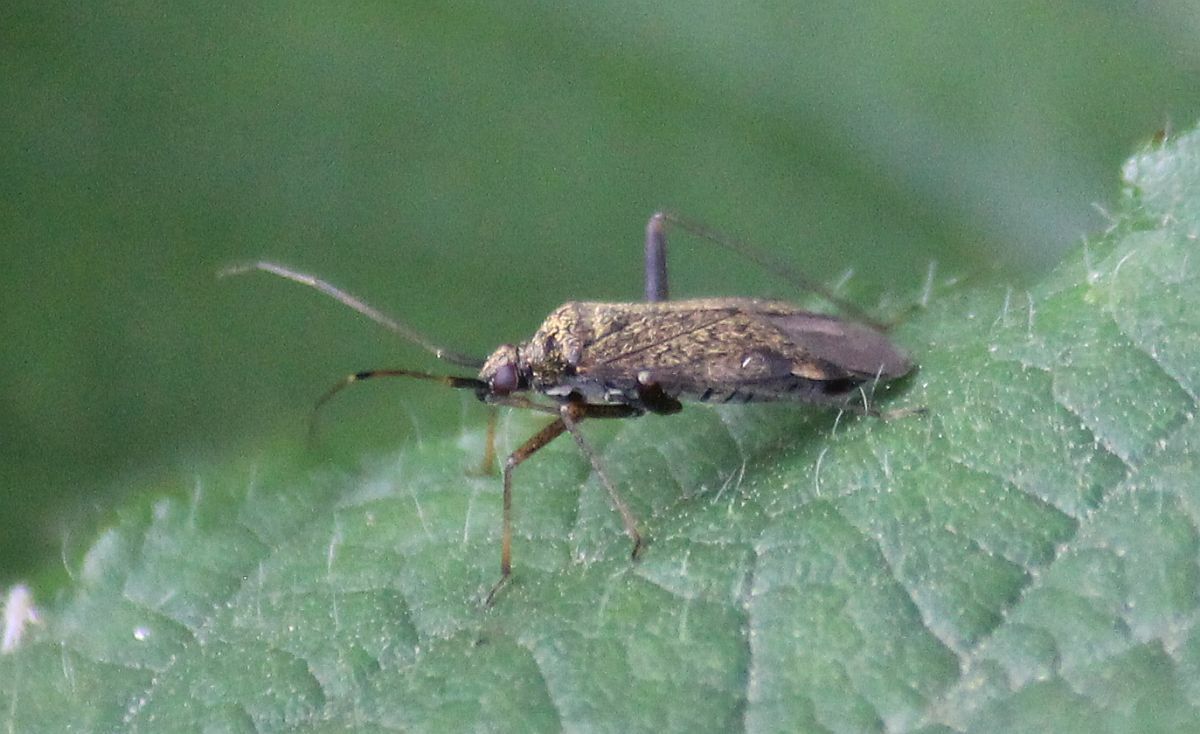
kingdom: Animalia
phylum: Arthropoda
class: Insecta
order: Hemiptera
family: Miridae
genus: Closterotomus
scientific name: Closterotomus fulvomaculatus
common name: Spotted plant bug
